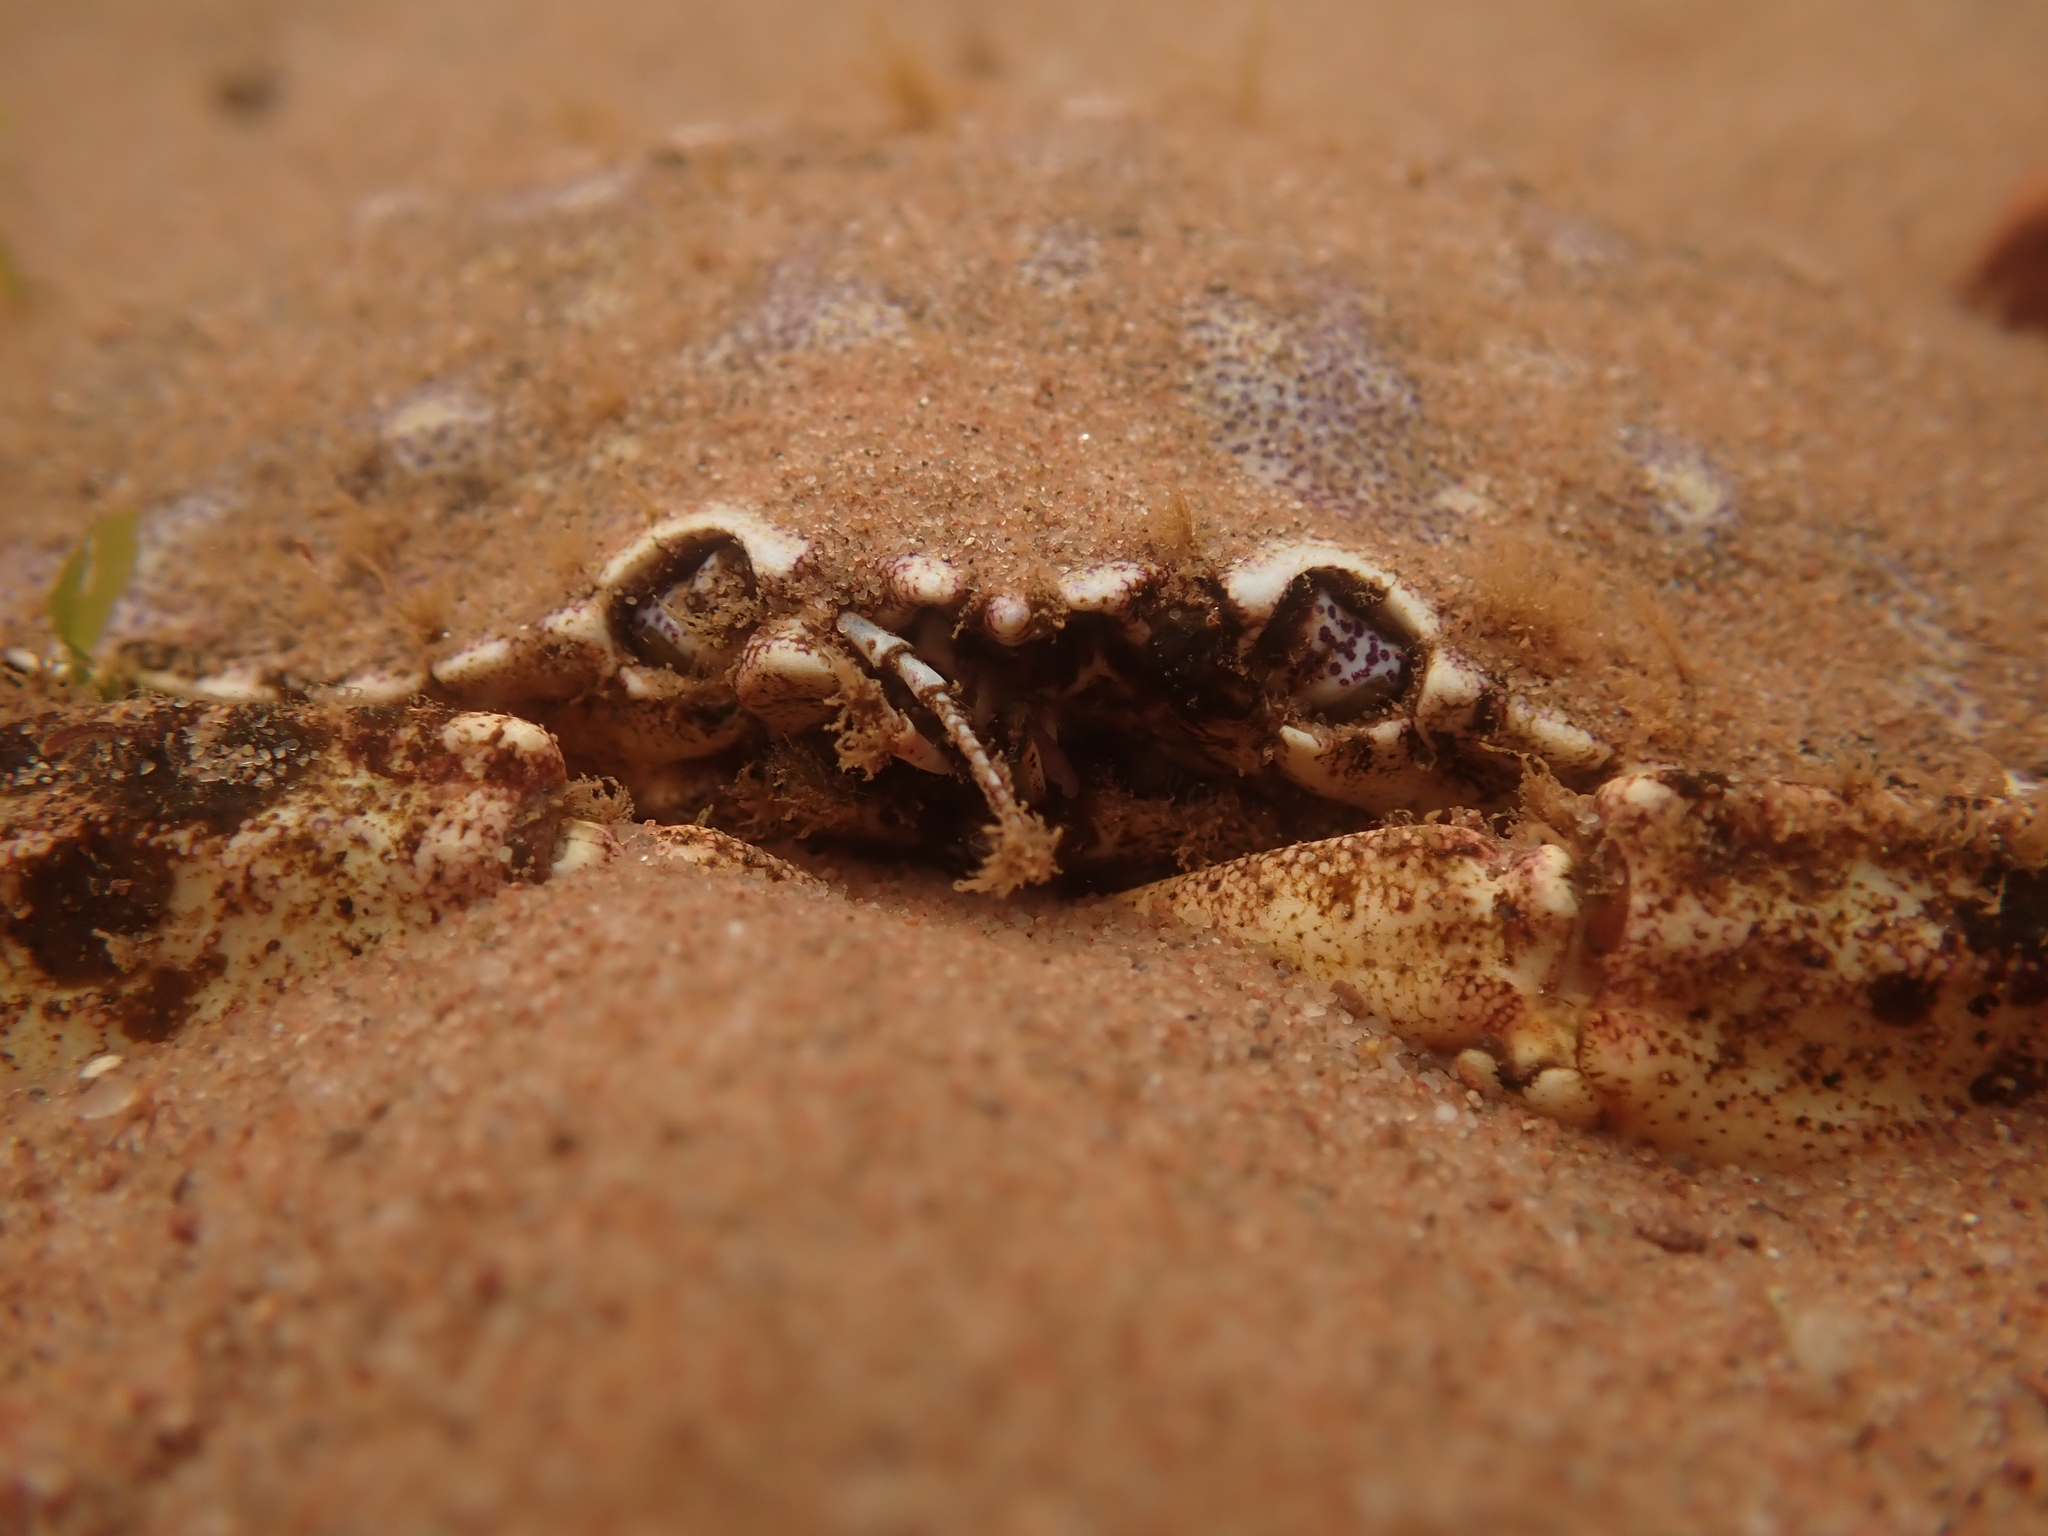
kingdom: Animalia
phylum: Arthropoda
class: Malacostraca
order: Decapoda
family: Cancridae
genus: Cancer
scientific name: Cancer irroratus
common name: Atlantic rock crab
